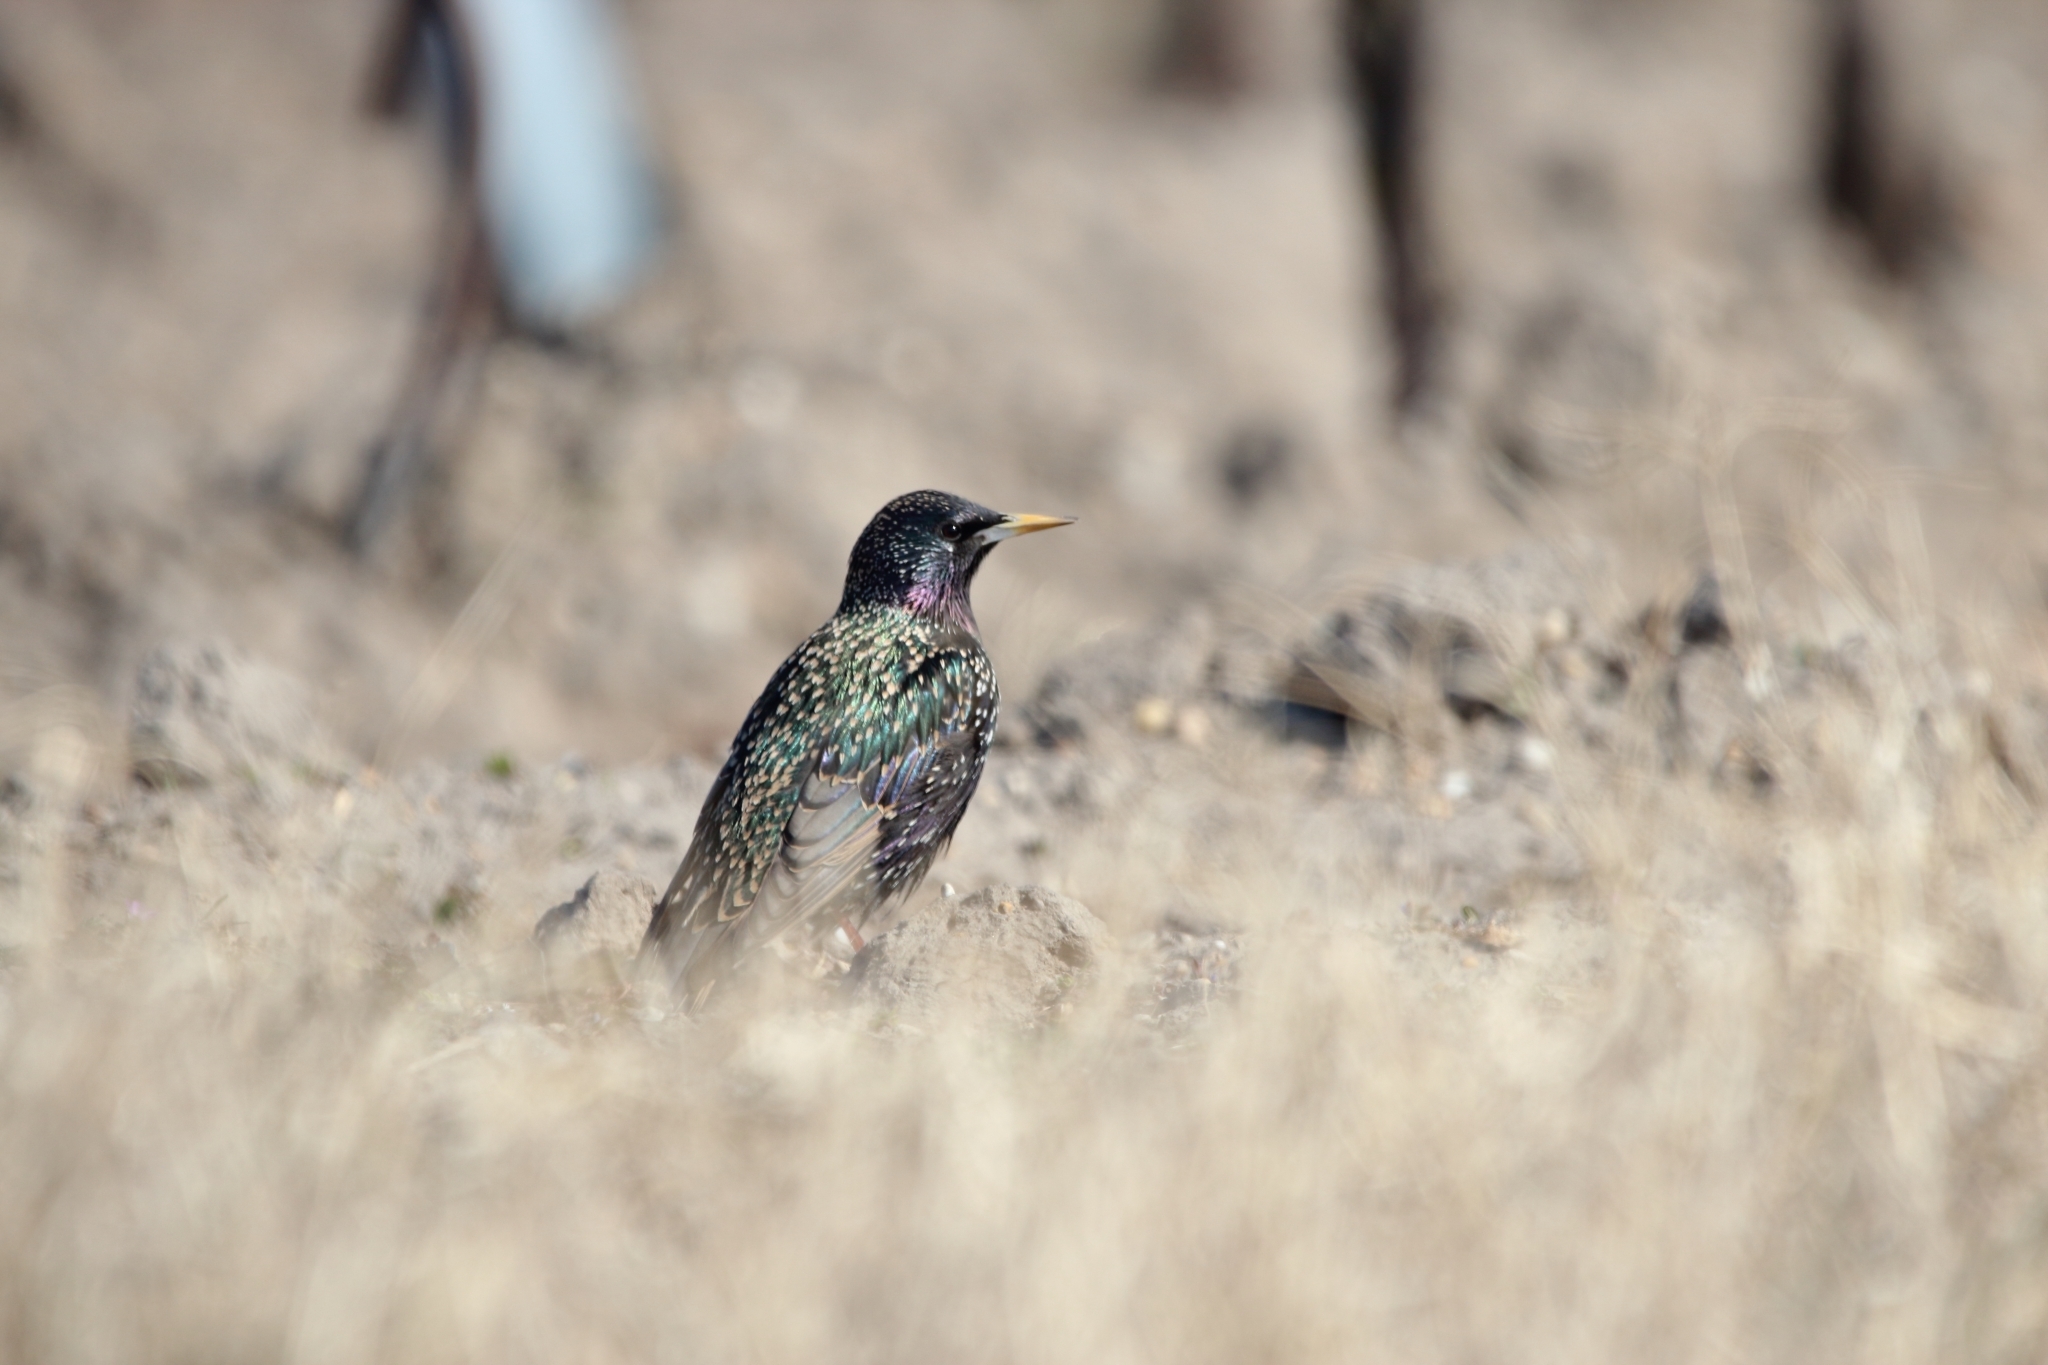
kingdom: Animalia
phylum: Chordata
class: Aves
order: Passeriformes
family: Sturnidae
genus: Sturnus
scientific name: Sturnus vulgaris
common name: Common starling
